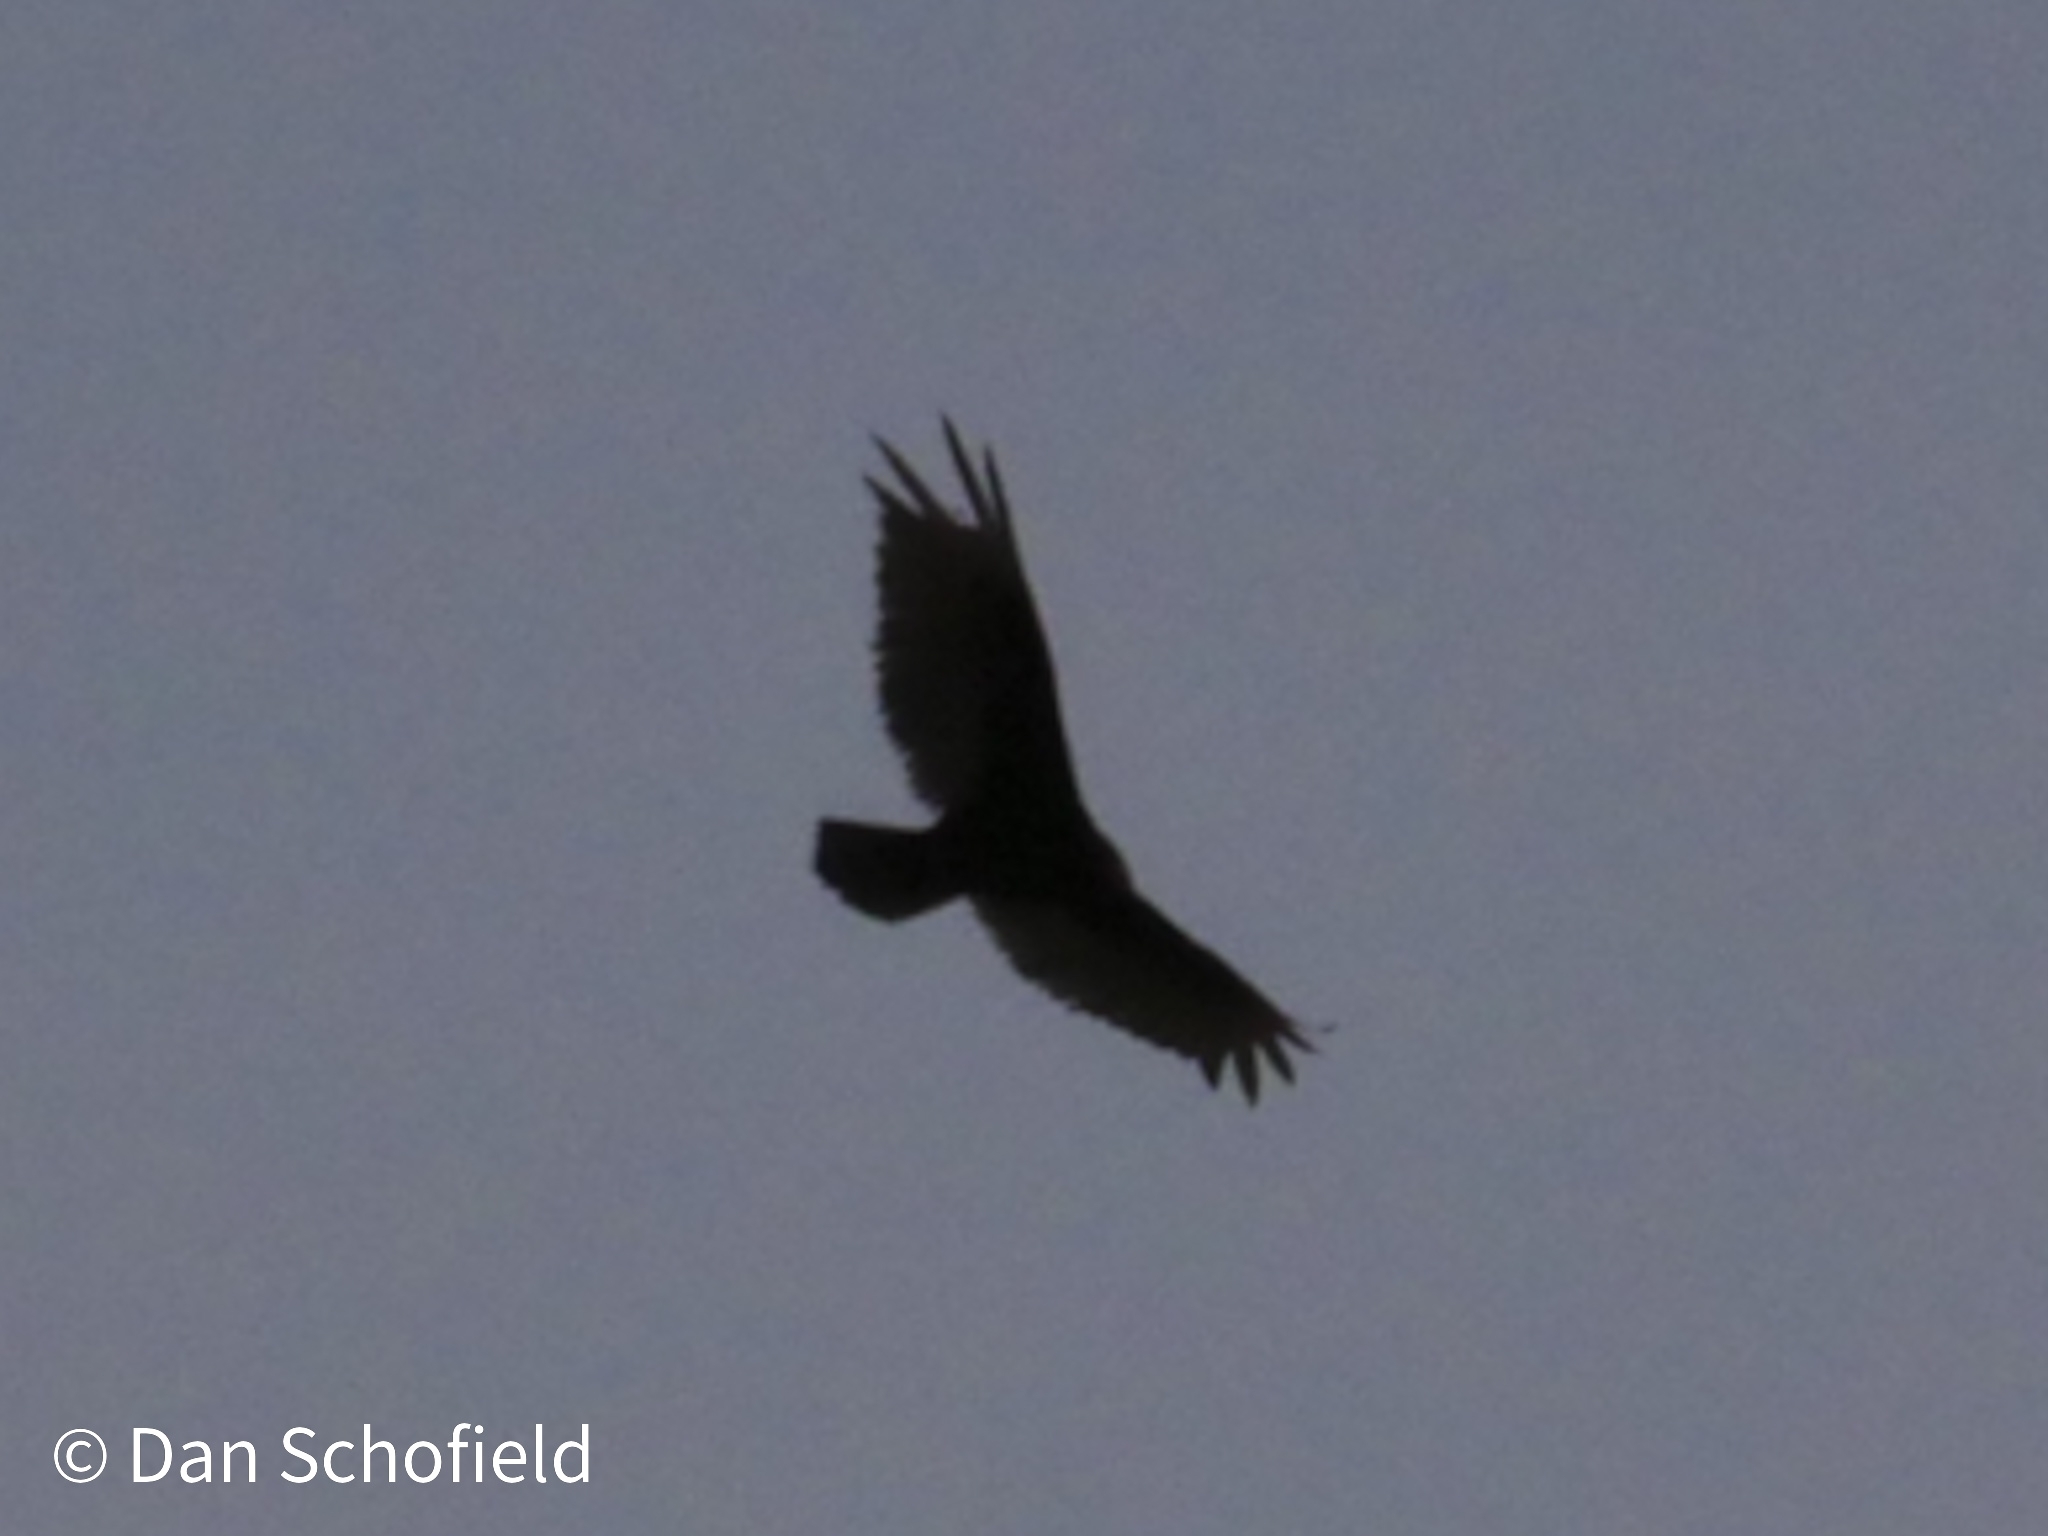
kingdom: Animalia
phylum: Chordata
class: Aves
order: Accipitriformes
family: Cathartidae
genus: Cathartes
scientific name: Cathartes aura
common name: Turkey vulture
